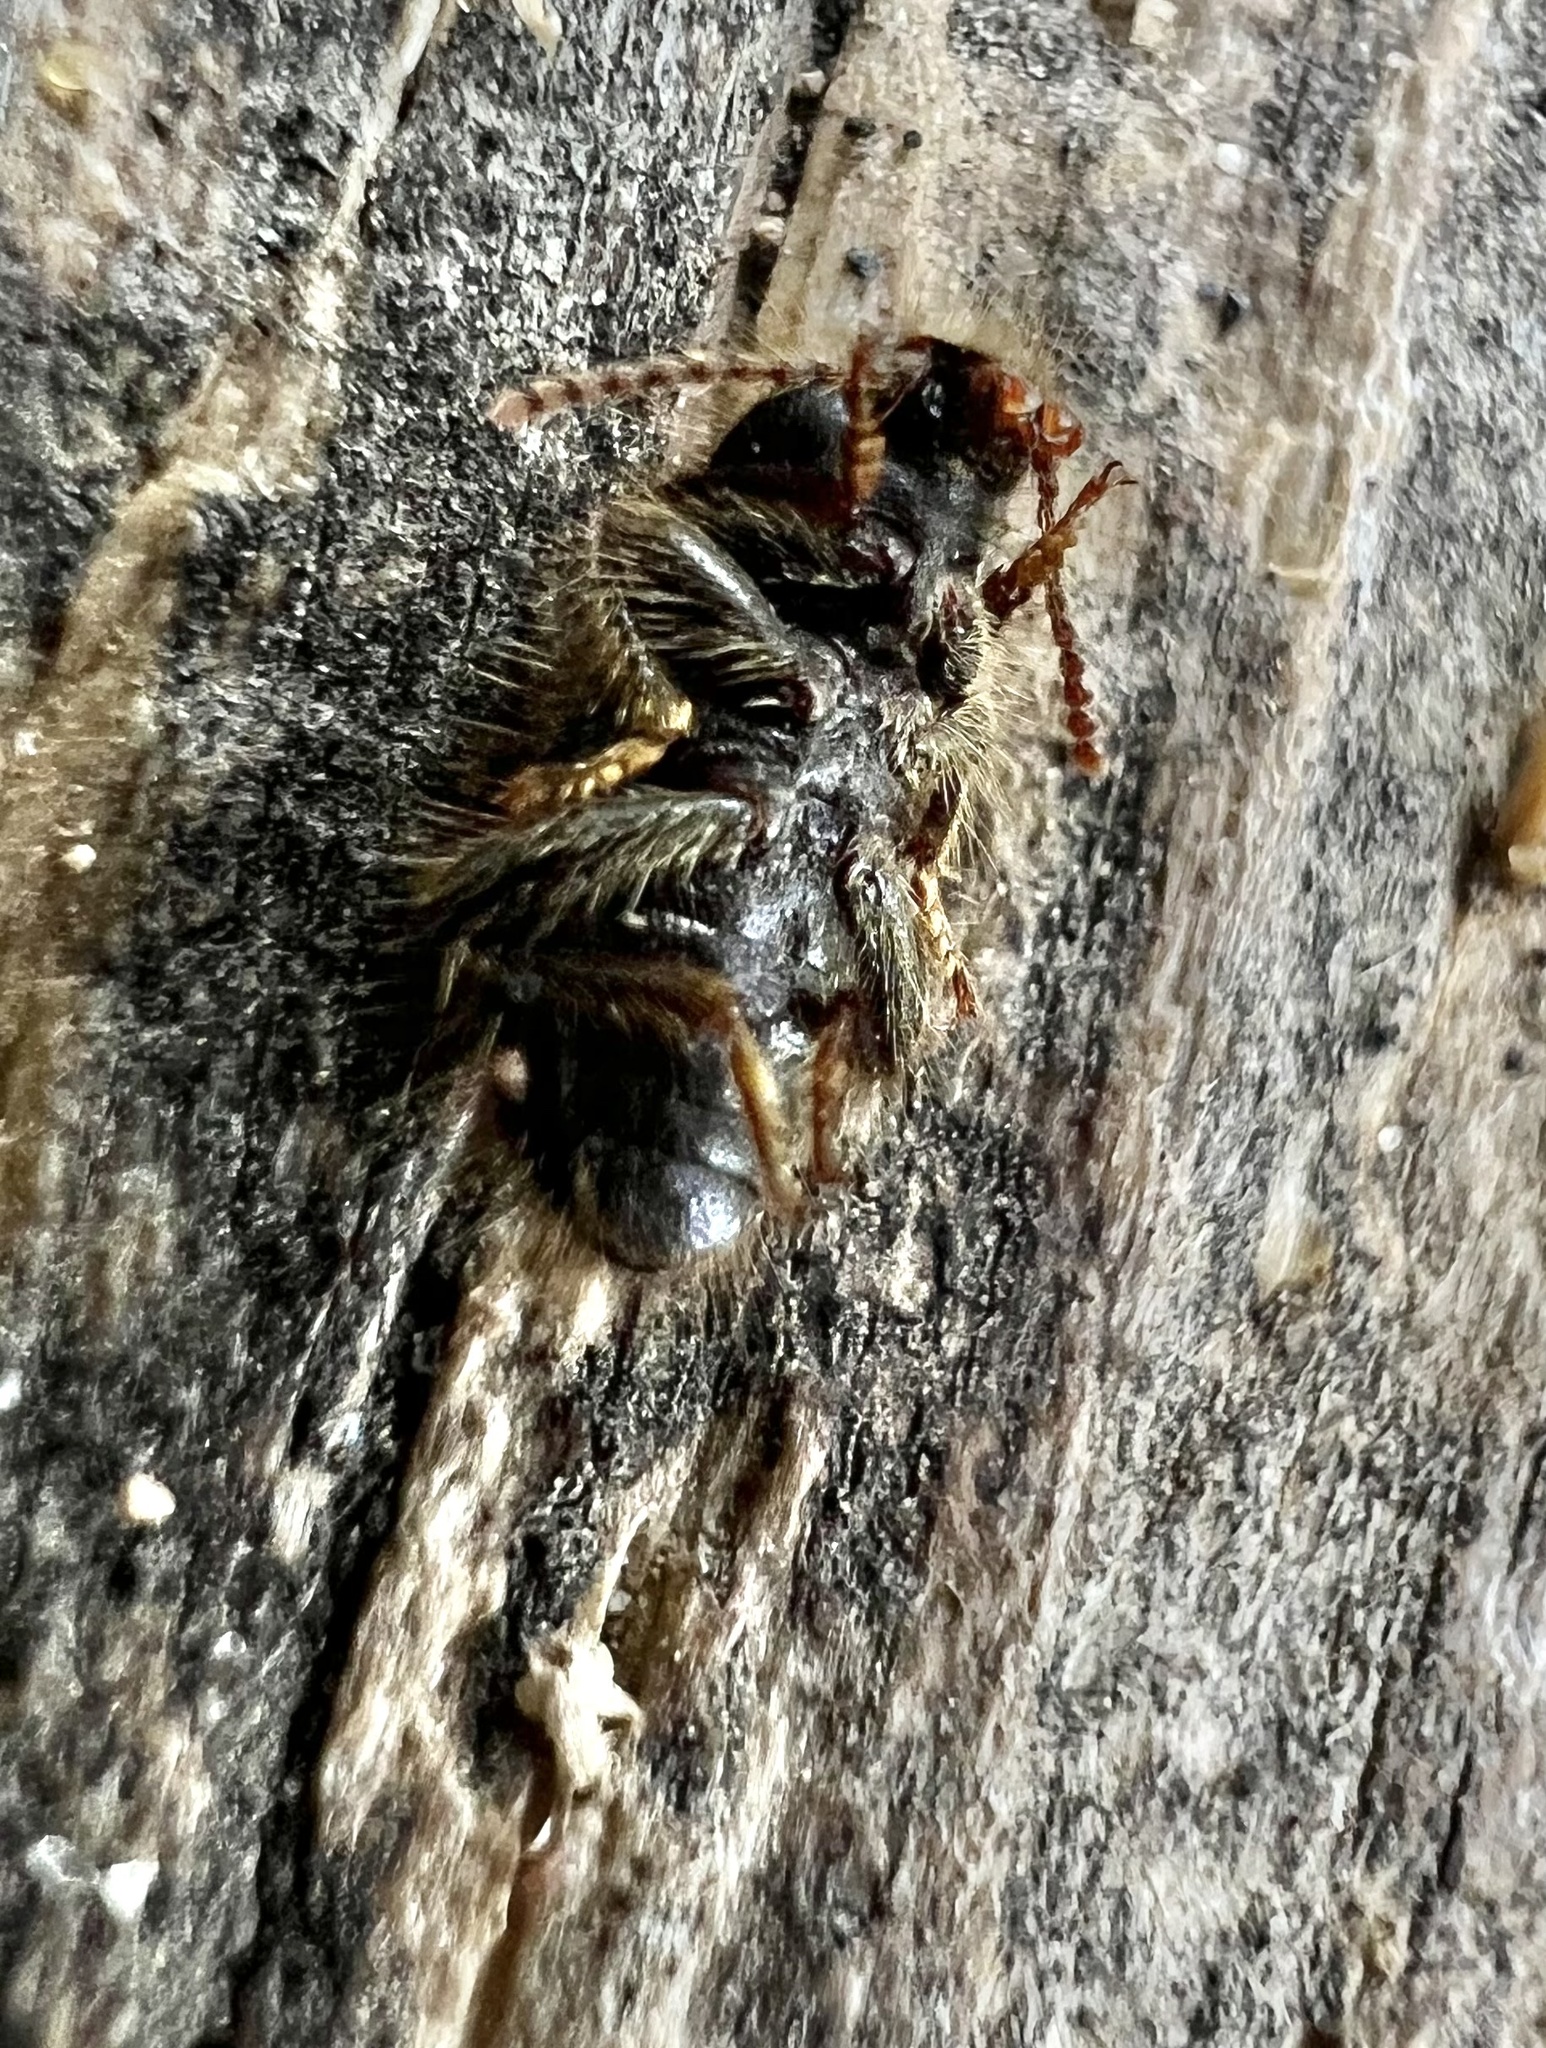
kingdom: Animalia
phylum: Arthropoda
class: Insecta
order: Coleoptera
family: Tenebrionidae
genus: Eleodes
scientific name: Eleodes littoralis
